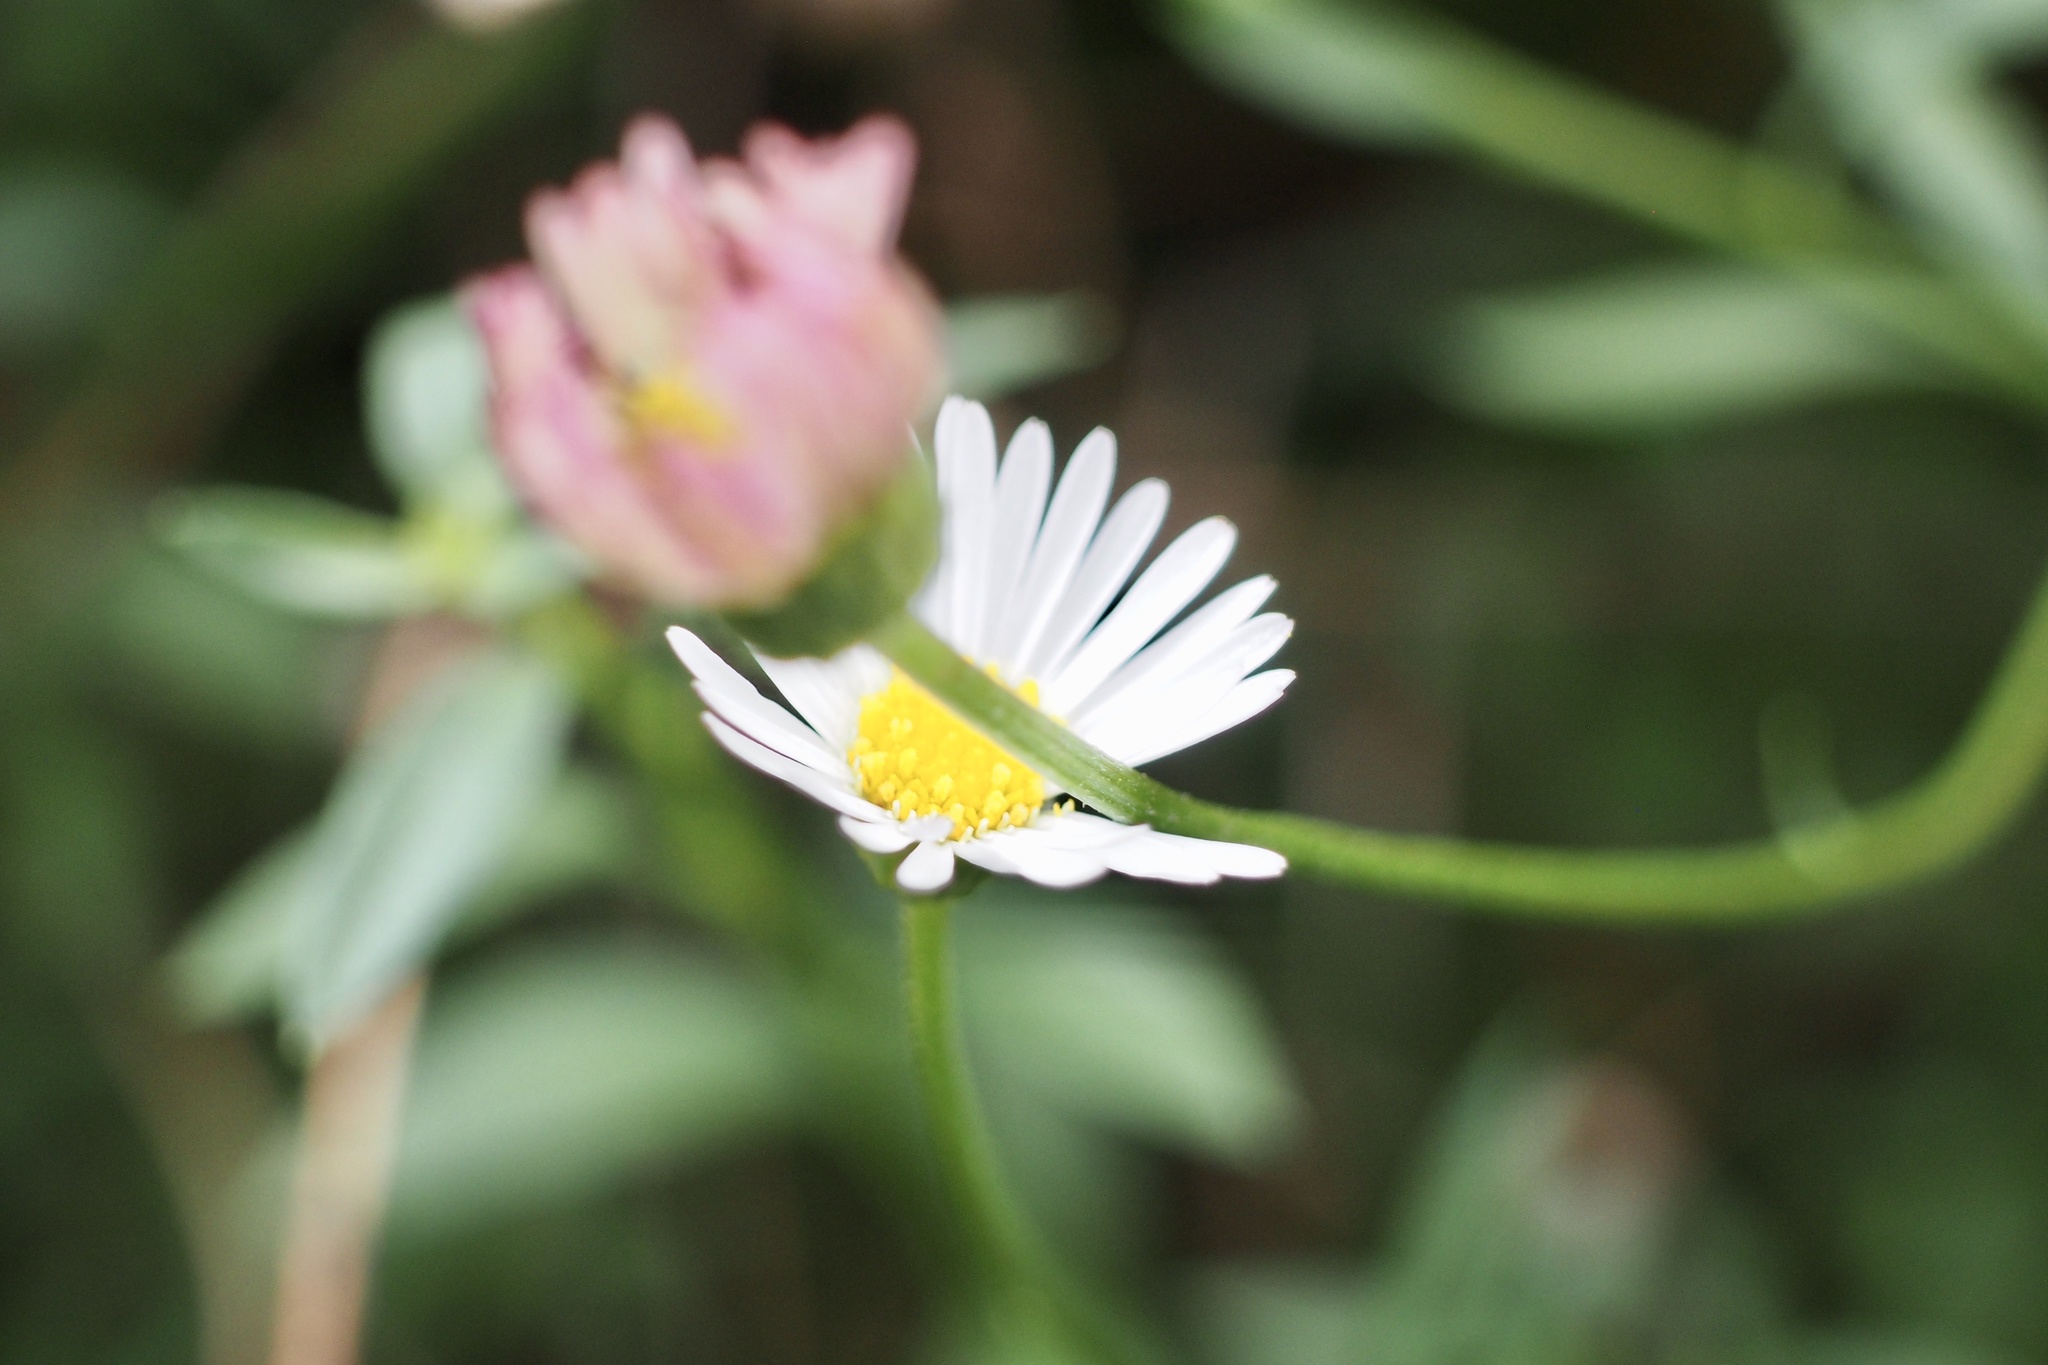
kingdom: Plantae
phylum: Tracheophyta
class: Magnoliopsida
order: Asterales
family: Asteraceae
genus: Erigeron
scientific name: Erigeron karvinskianus
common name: Mexican fleabane
